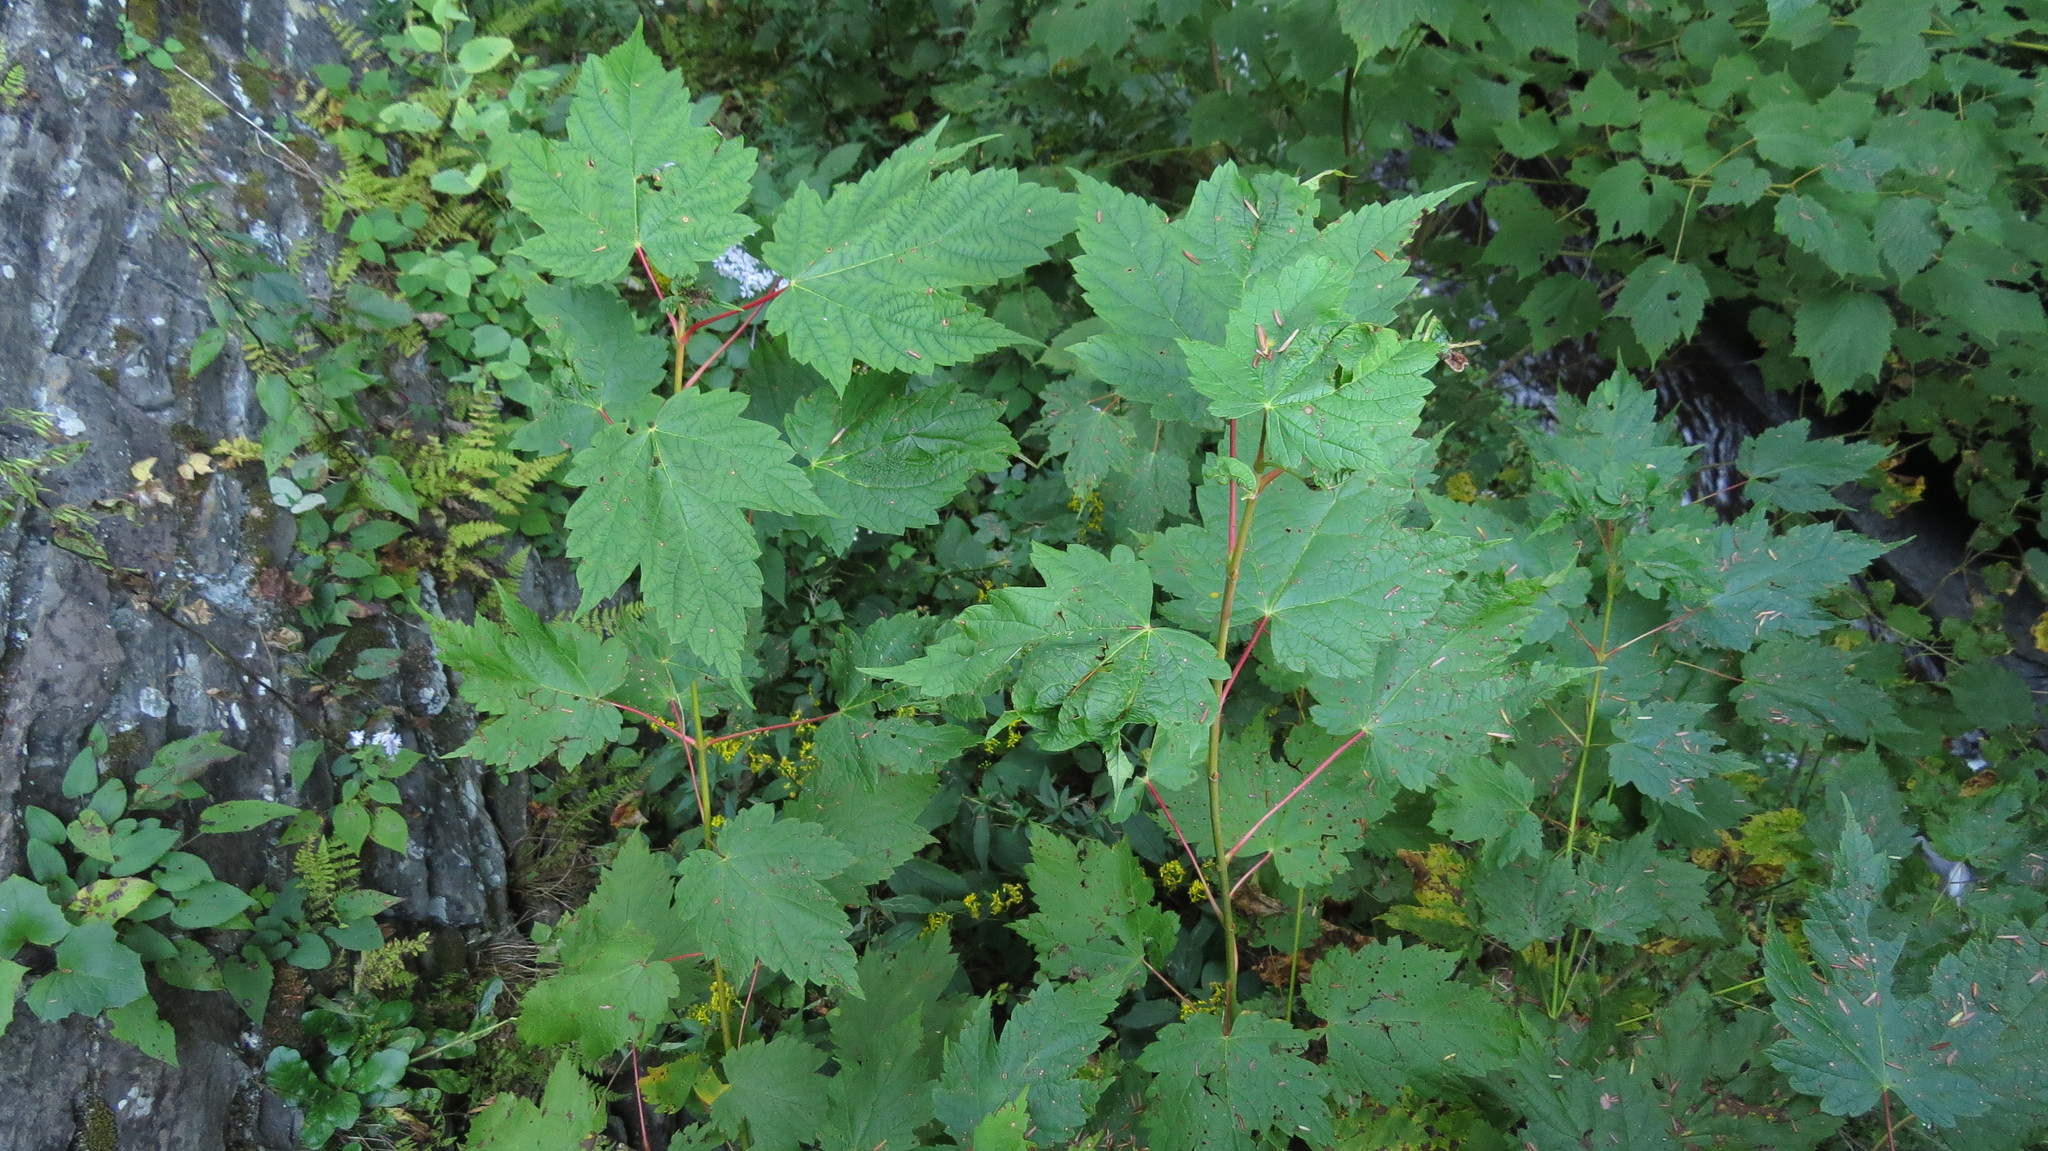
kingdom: Plantae
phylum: Tracheophyta
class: Magnoliopsida
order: Sapindales
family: Sapindaceae
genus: Acer
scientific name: Acer spicatum
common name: Mountain maple
